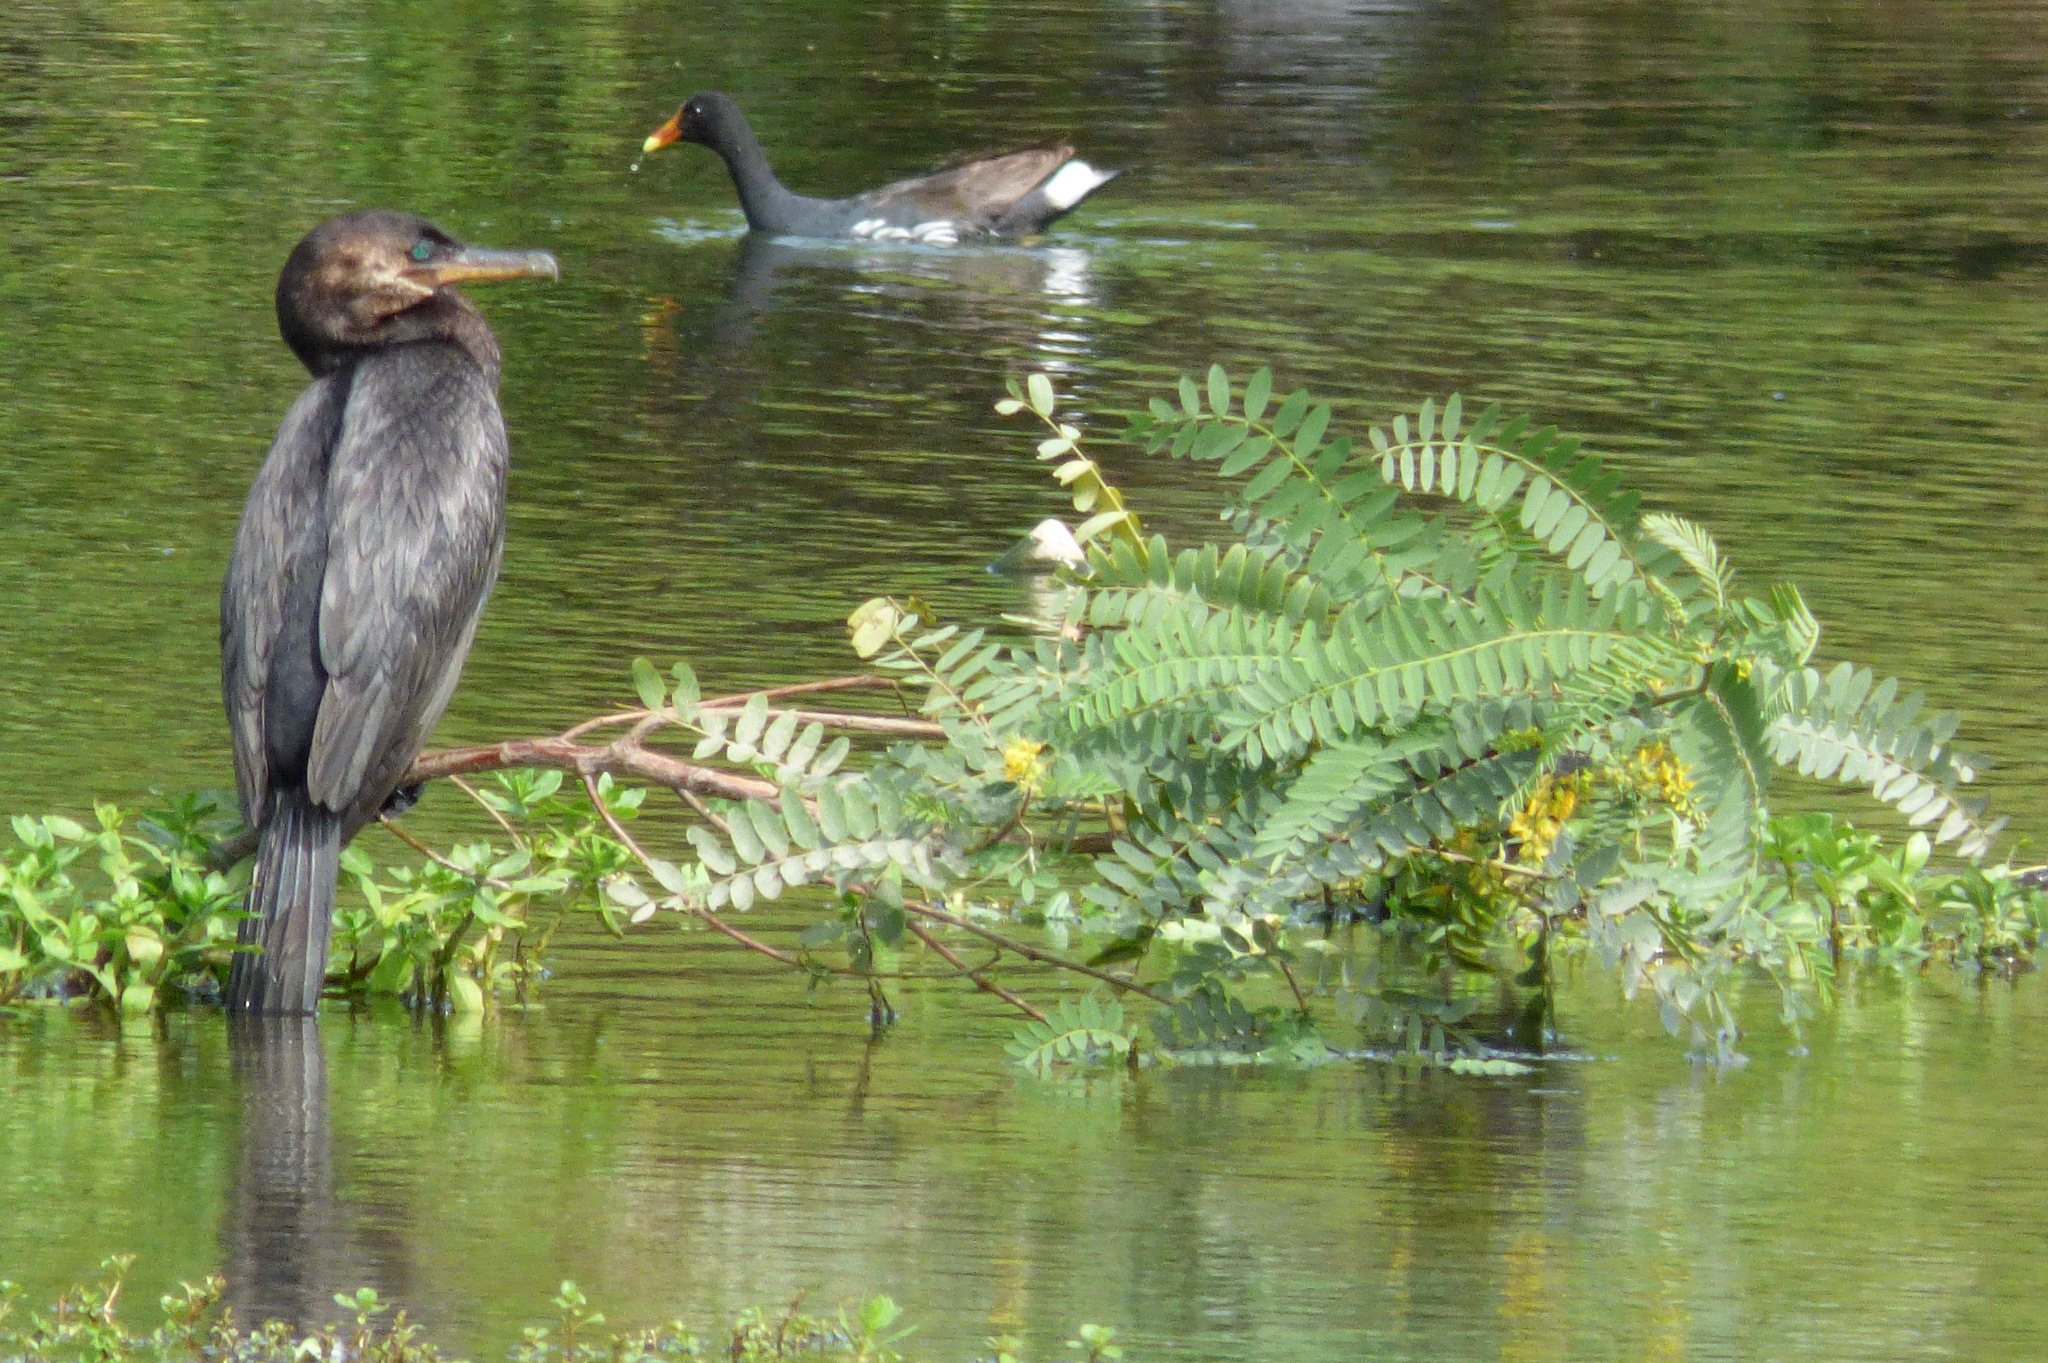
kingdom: Animalia
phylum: Chordata
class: Aves
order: Suliformes
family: Phalacrocoracidae
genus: Phalacrocorax
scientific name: Phalacrocorax brasilianus
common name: Neotropic cormorant
